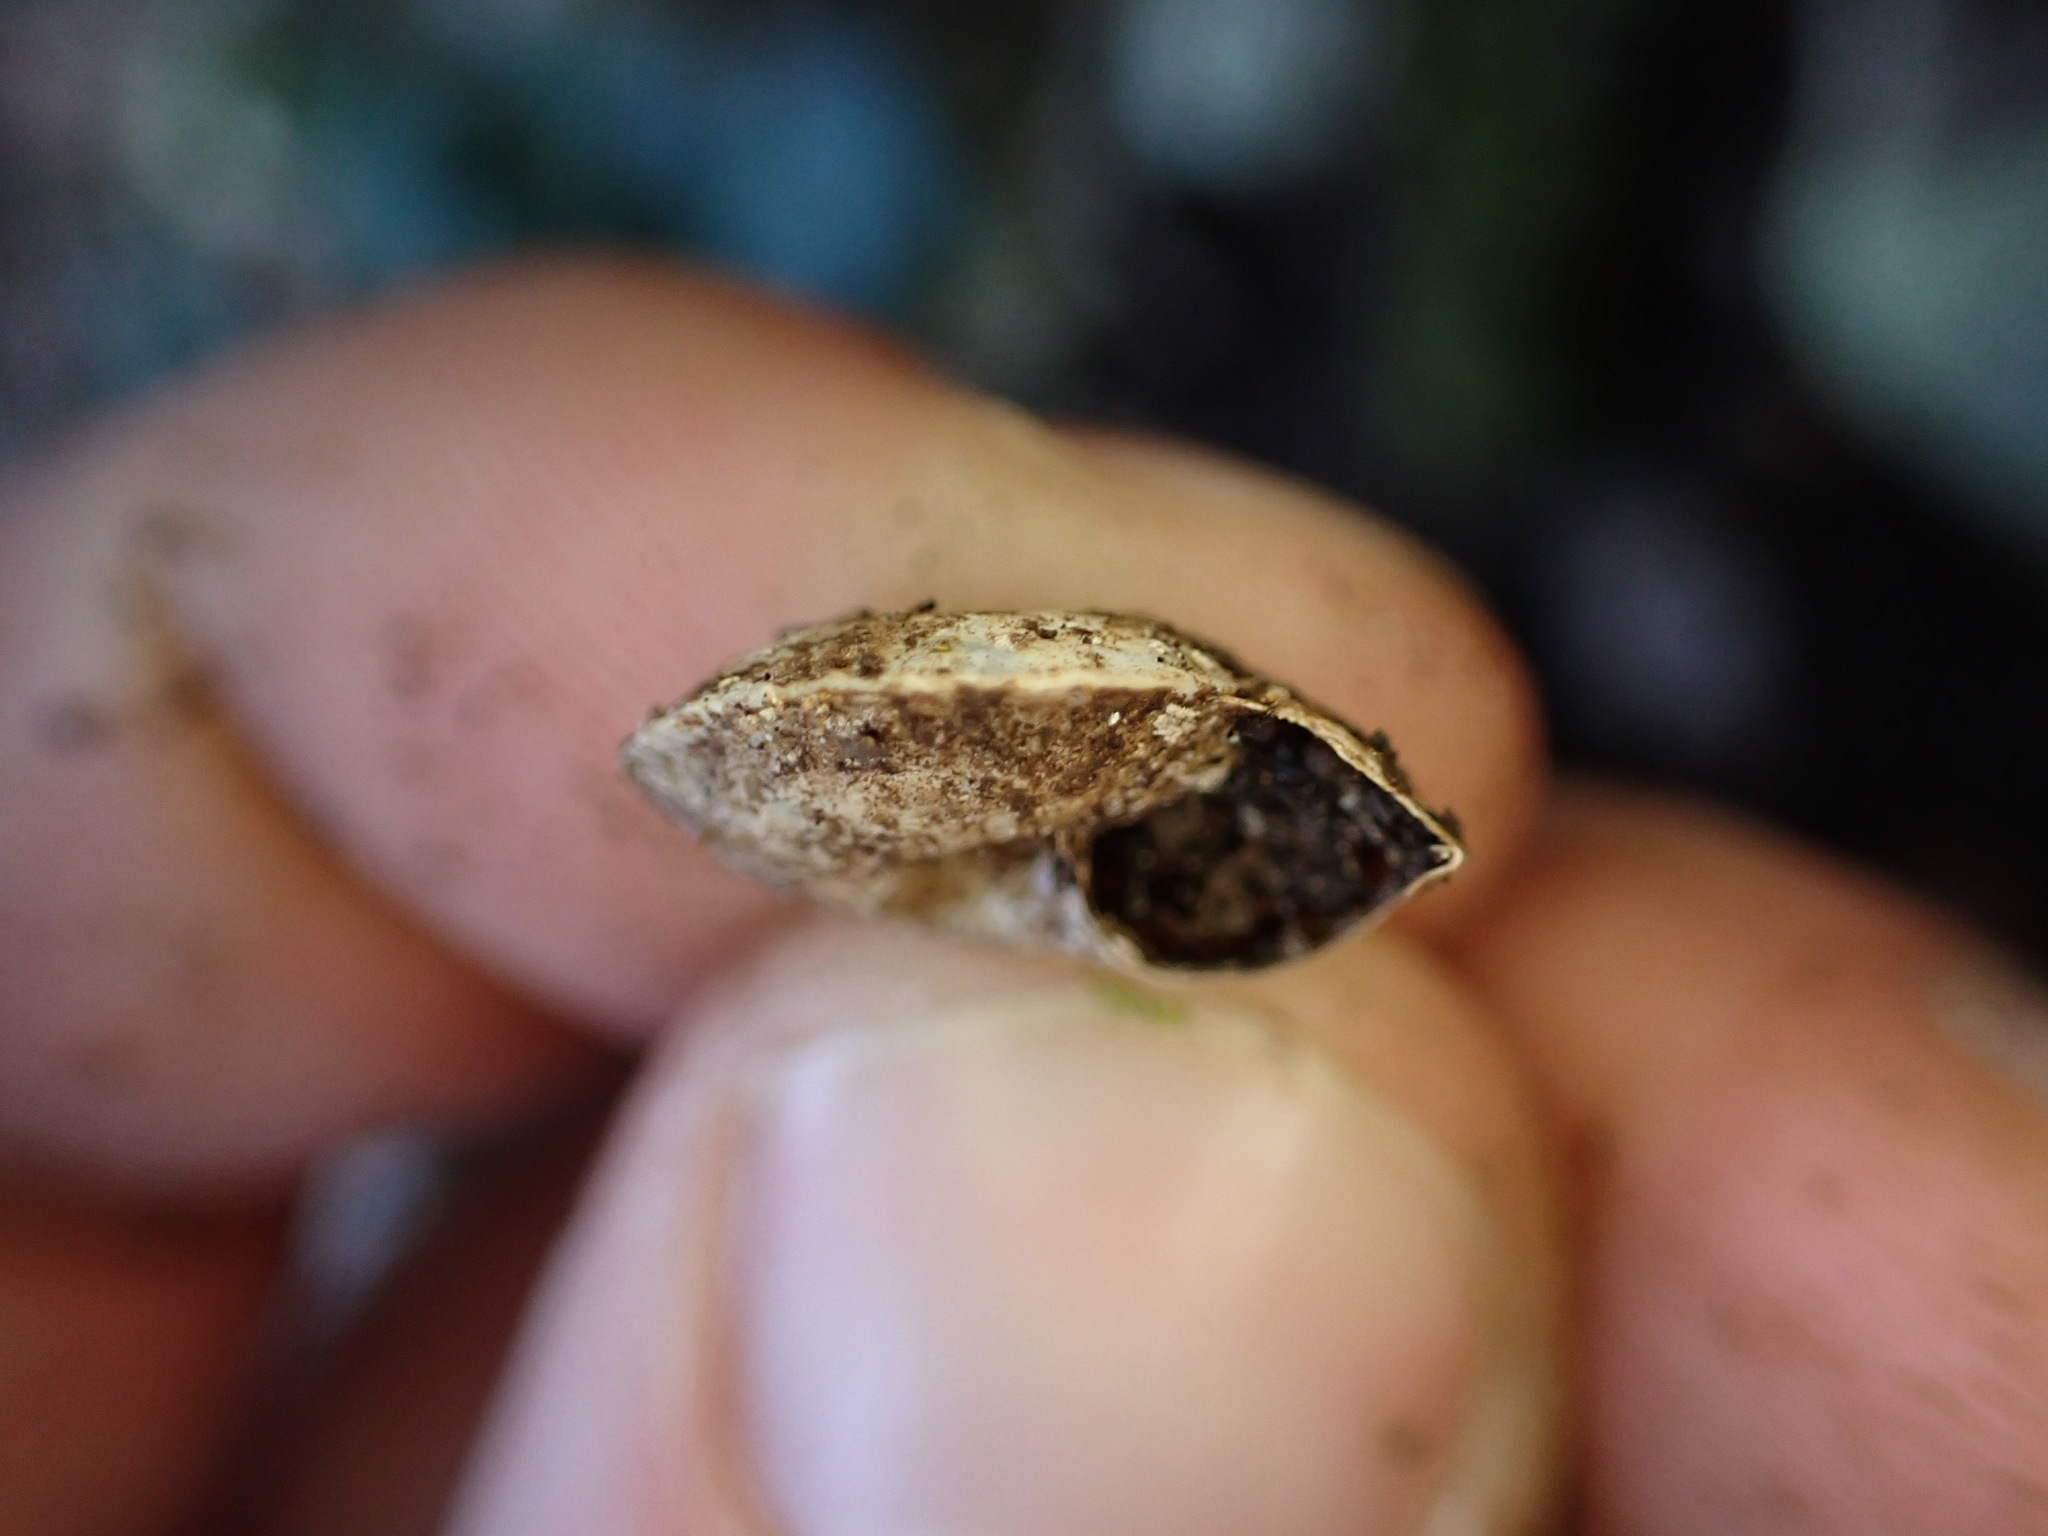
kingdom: Animalia
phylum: Mollusca
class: Gastropoda
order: Stylommatophora
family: Helicidae
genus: Helicigona
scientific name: Helicigona lapicida
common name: Lapidary snail
